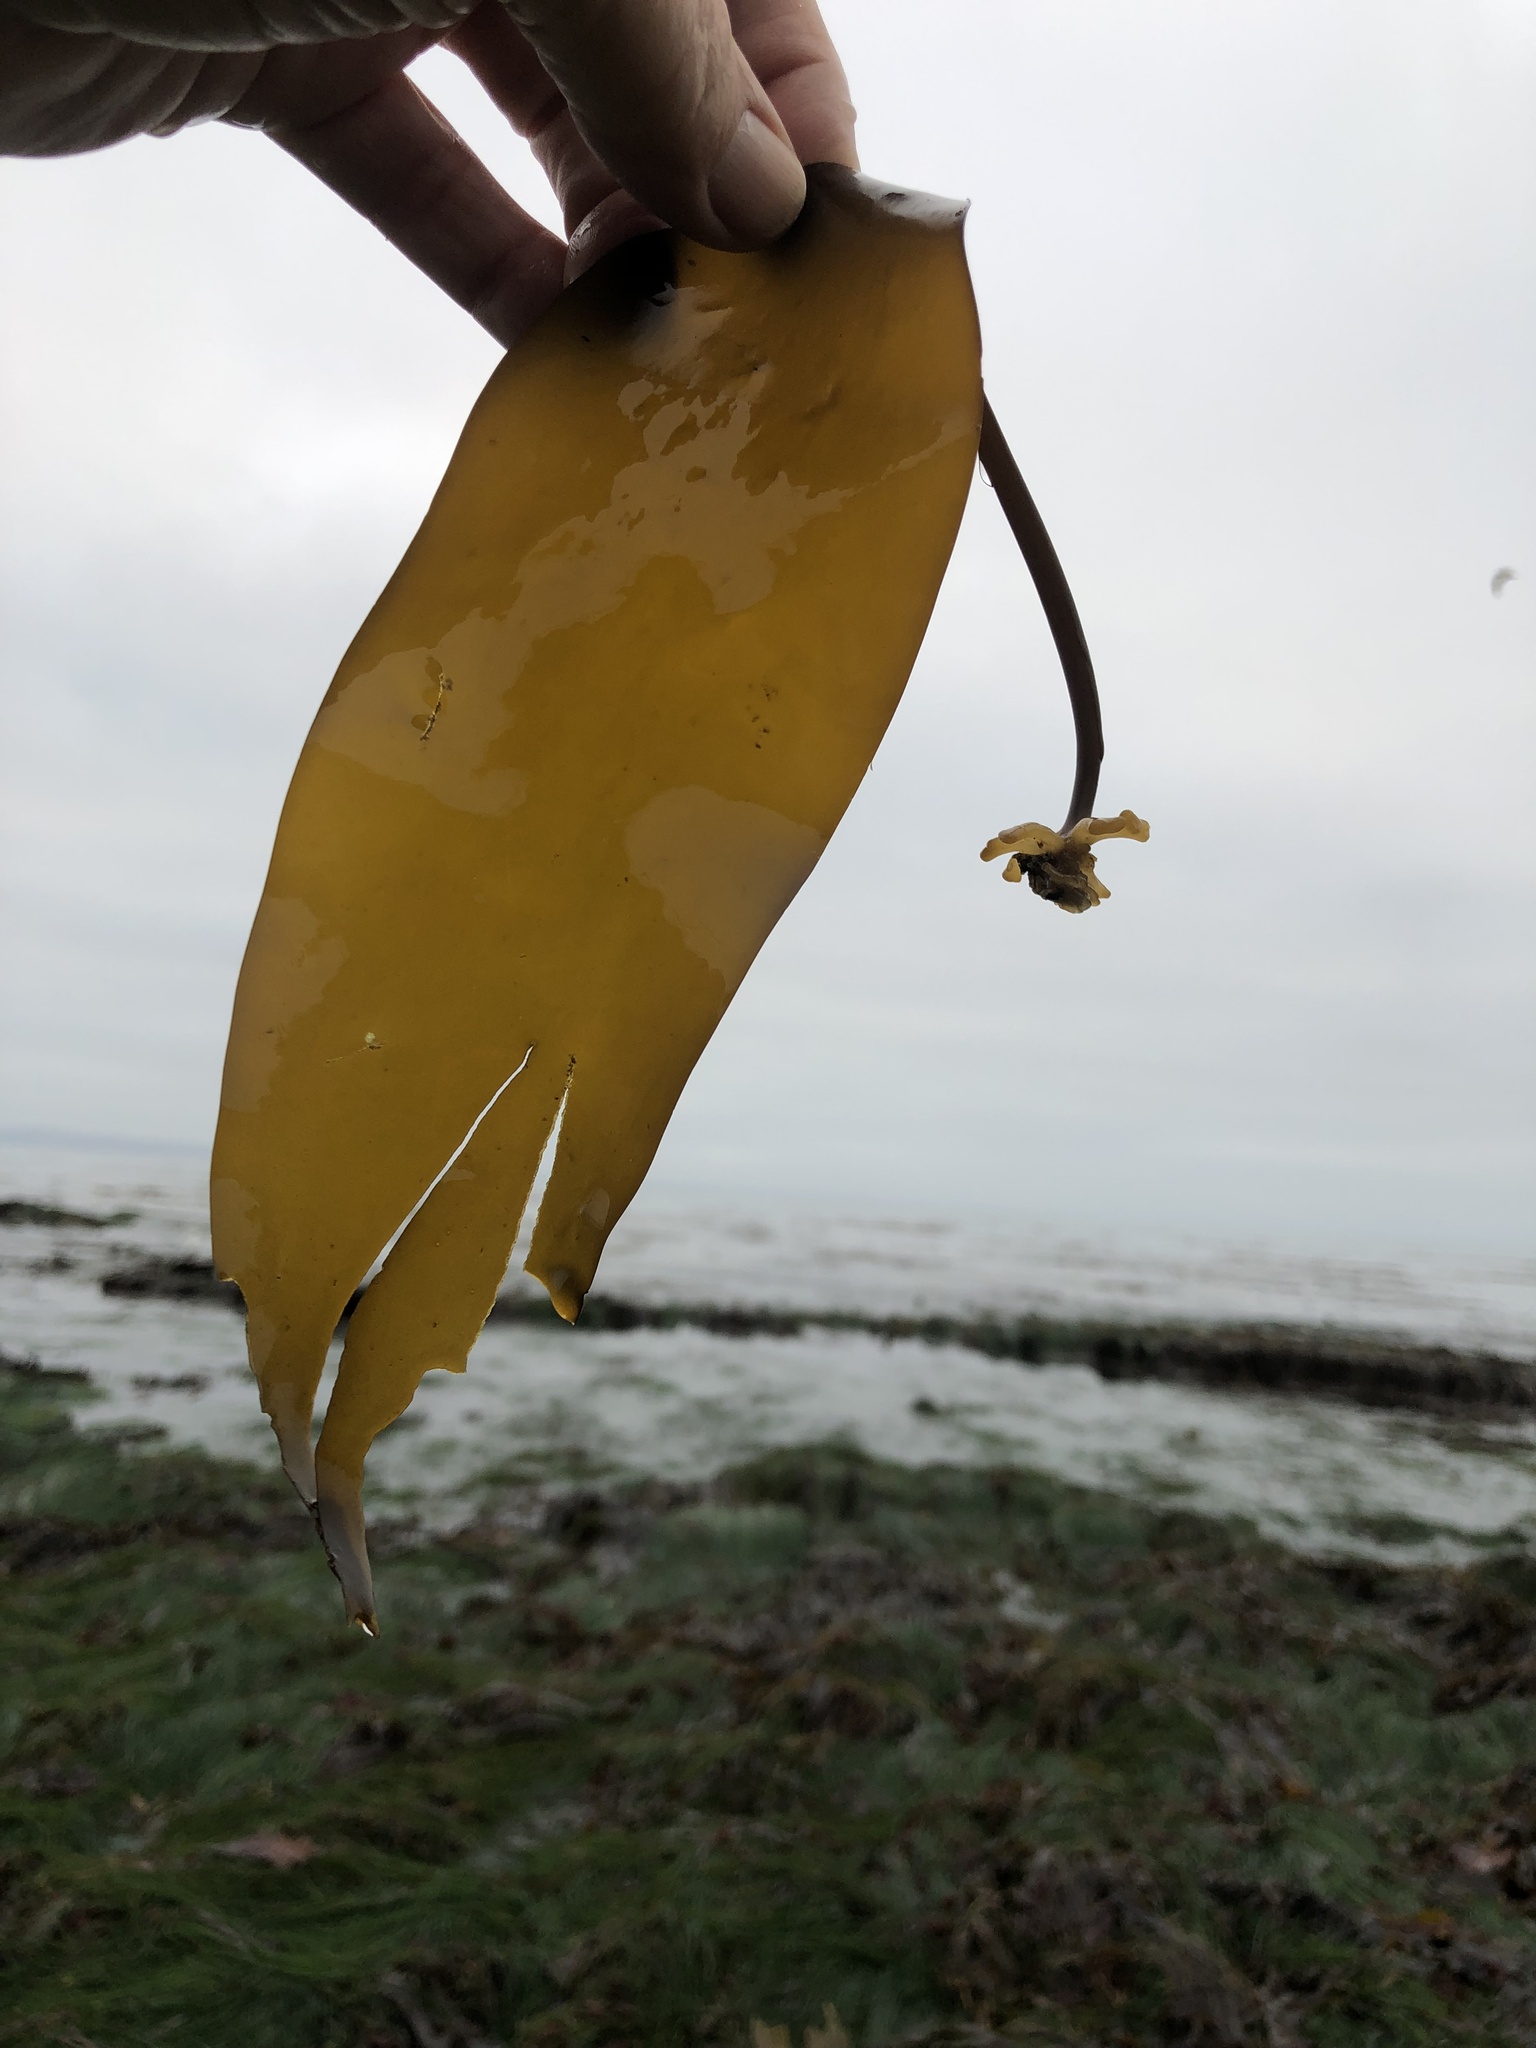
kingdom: Chromista
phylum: Ochrophyta
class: Phaeophyceae
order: Laminariales
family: Laminariaceae
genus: Laminaria
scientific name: Laminaria setchellii
